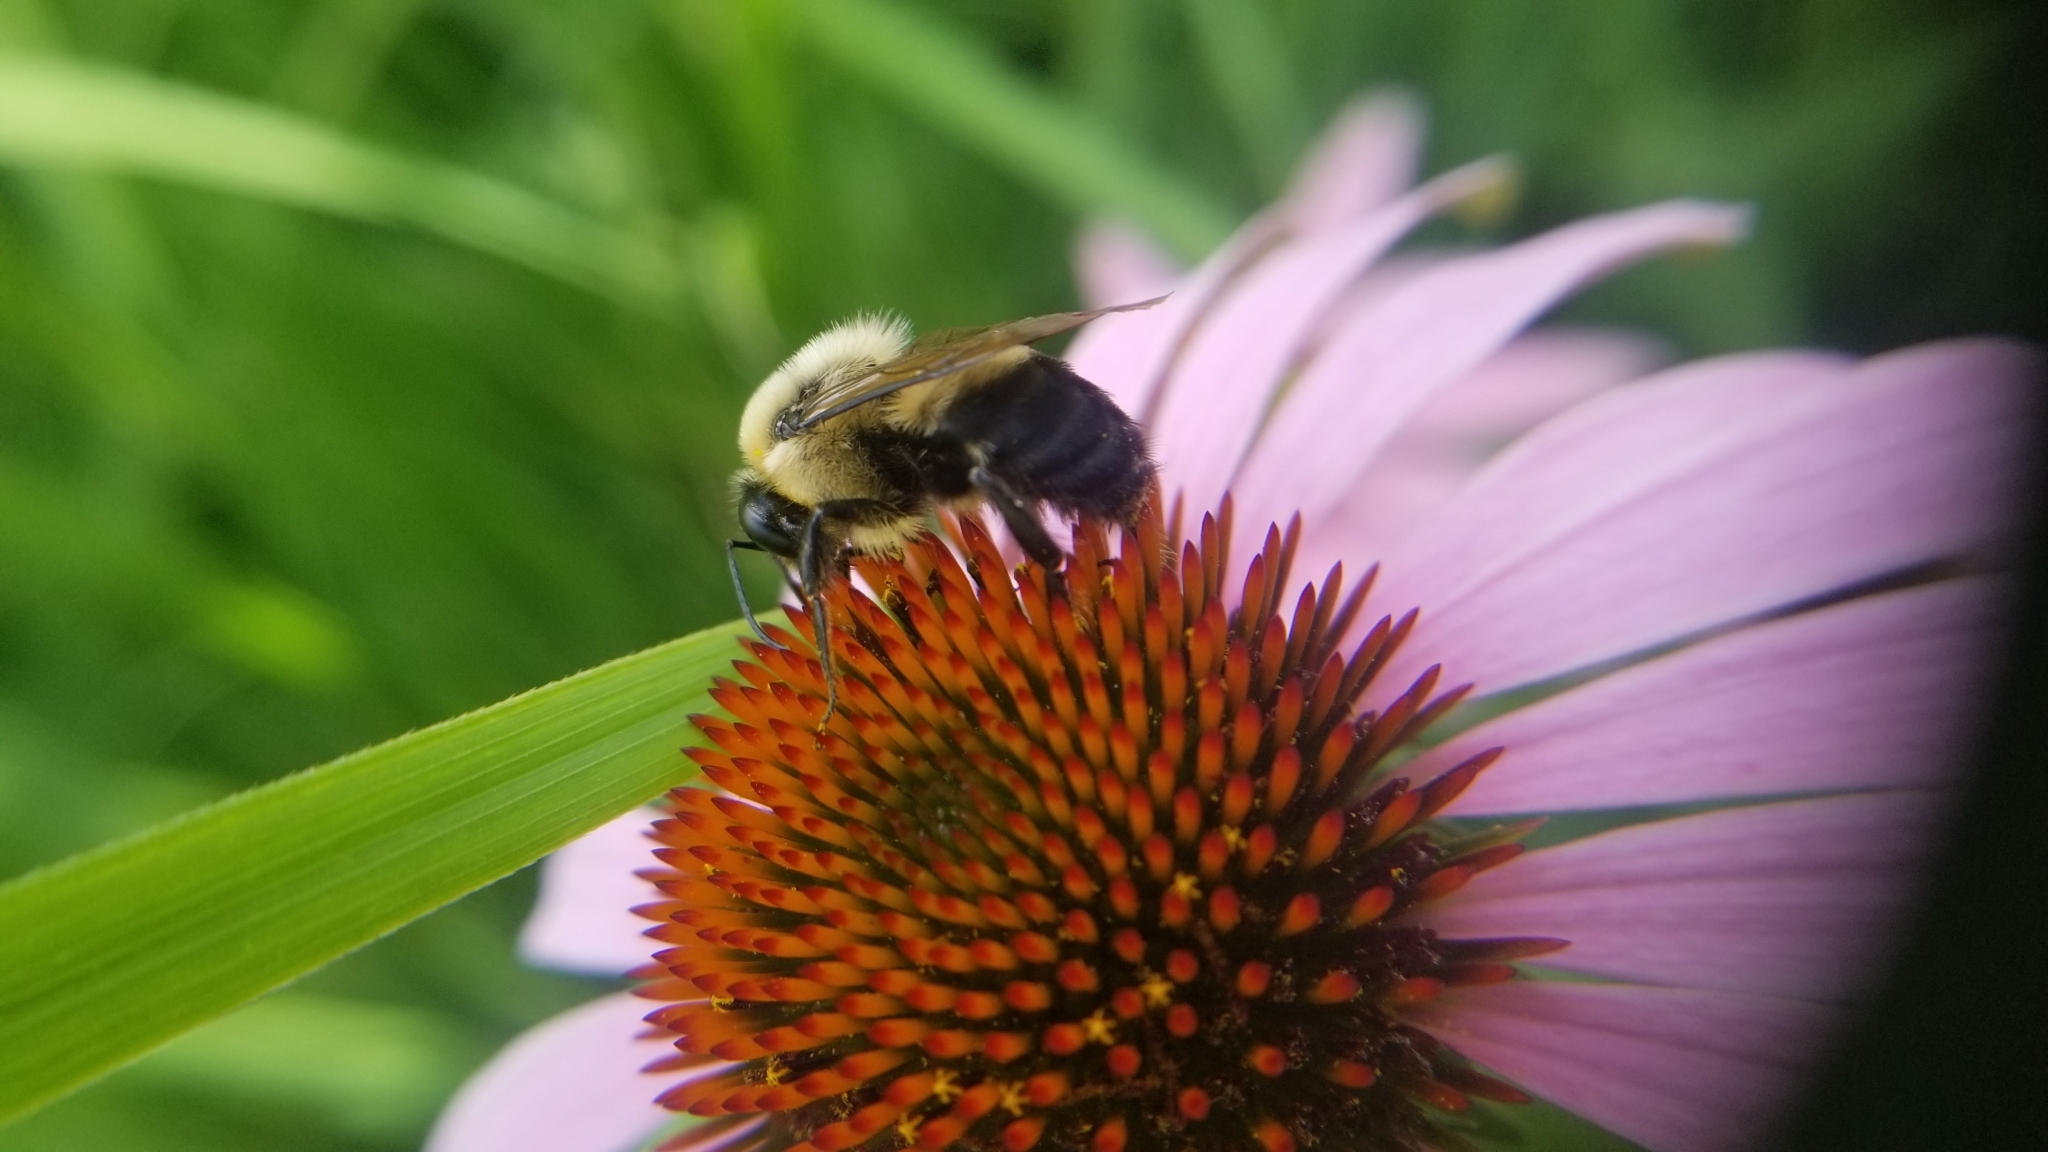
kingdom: Animalia
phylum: Arthropoda
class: Insecta
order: Hymenoptera
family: Apidae
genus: Apidae
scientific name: Apidae
